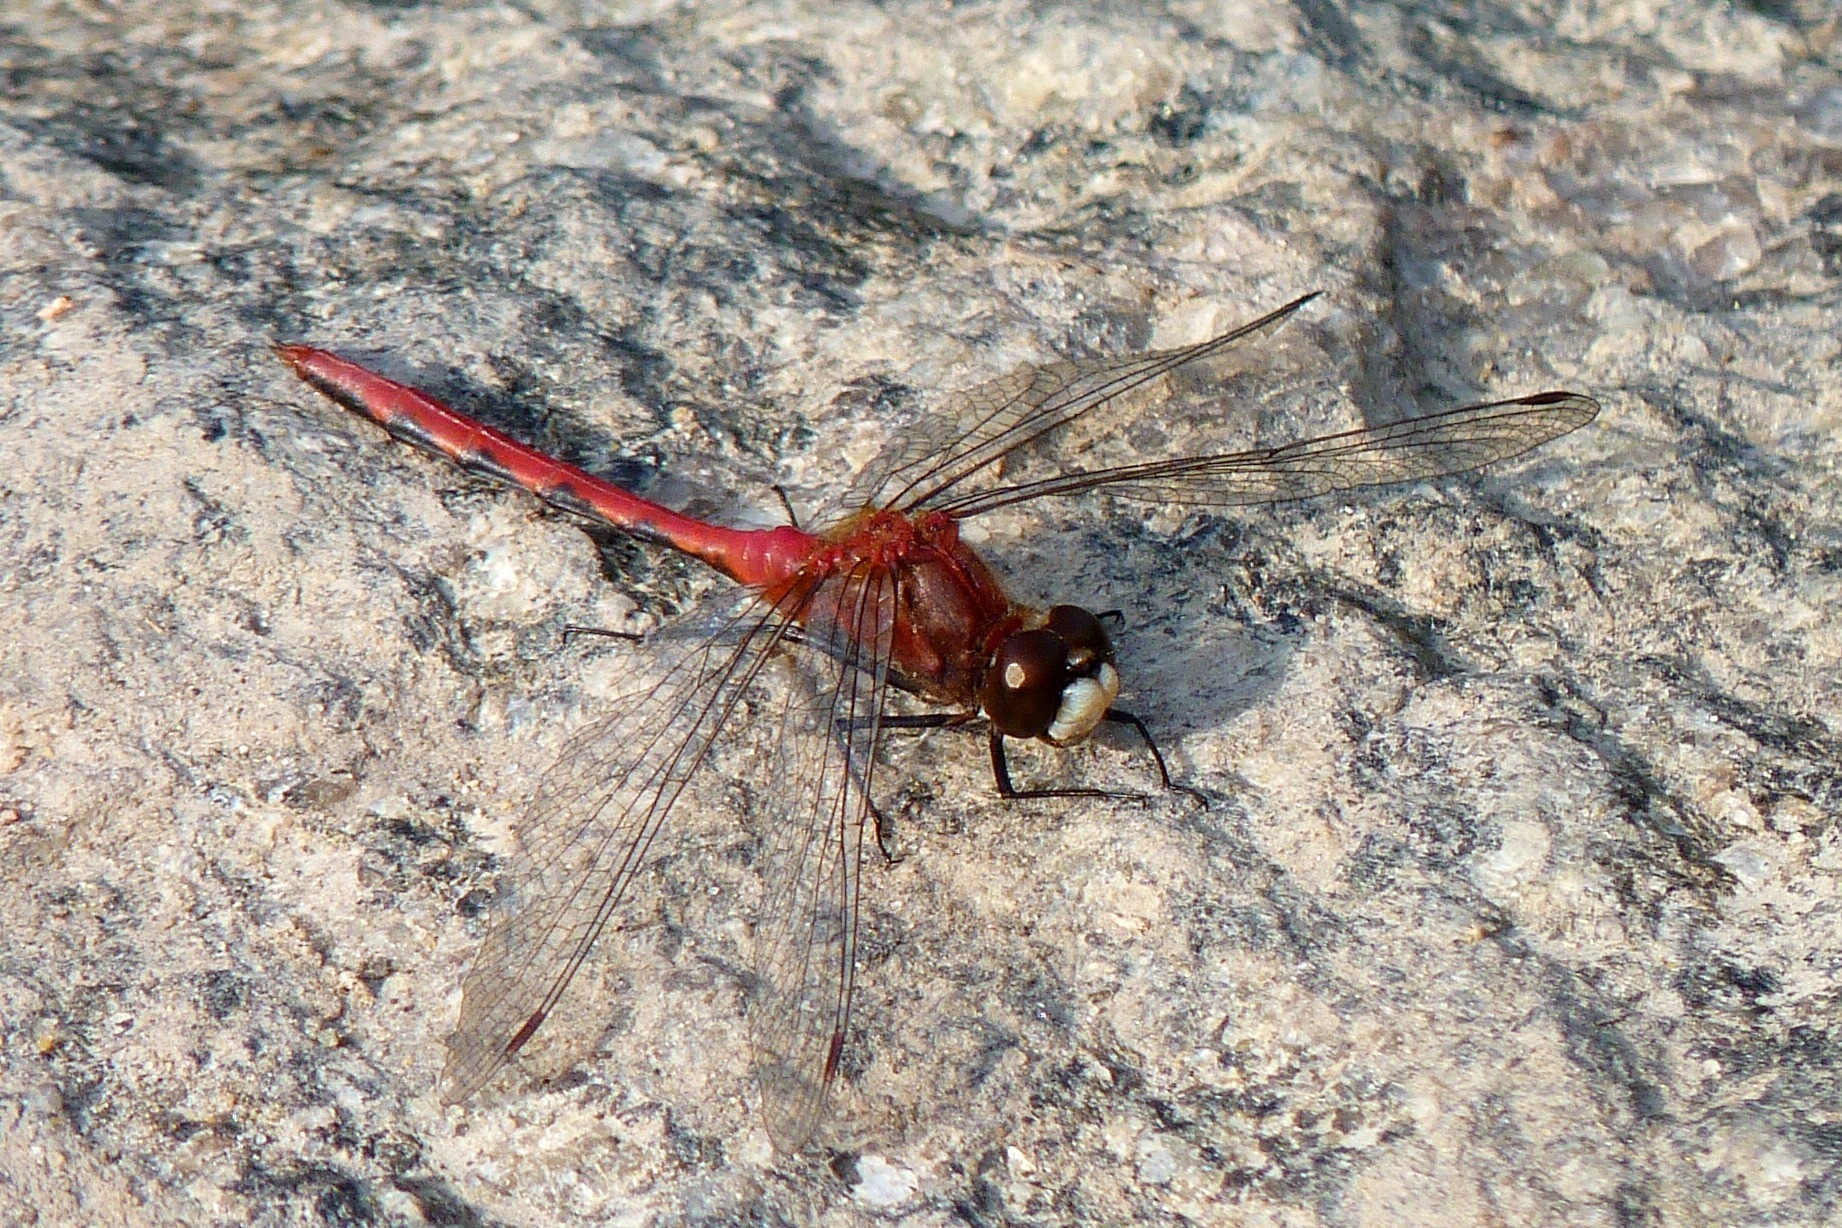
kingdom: Animalia
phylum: Arthropoda
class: Insecta
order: Odonata
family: Libellulidae
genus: Sympetrum
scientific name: Sympetrum obtrusum
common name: White-faced meadowhawk
